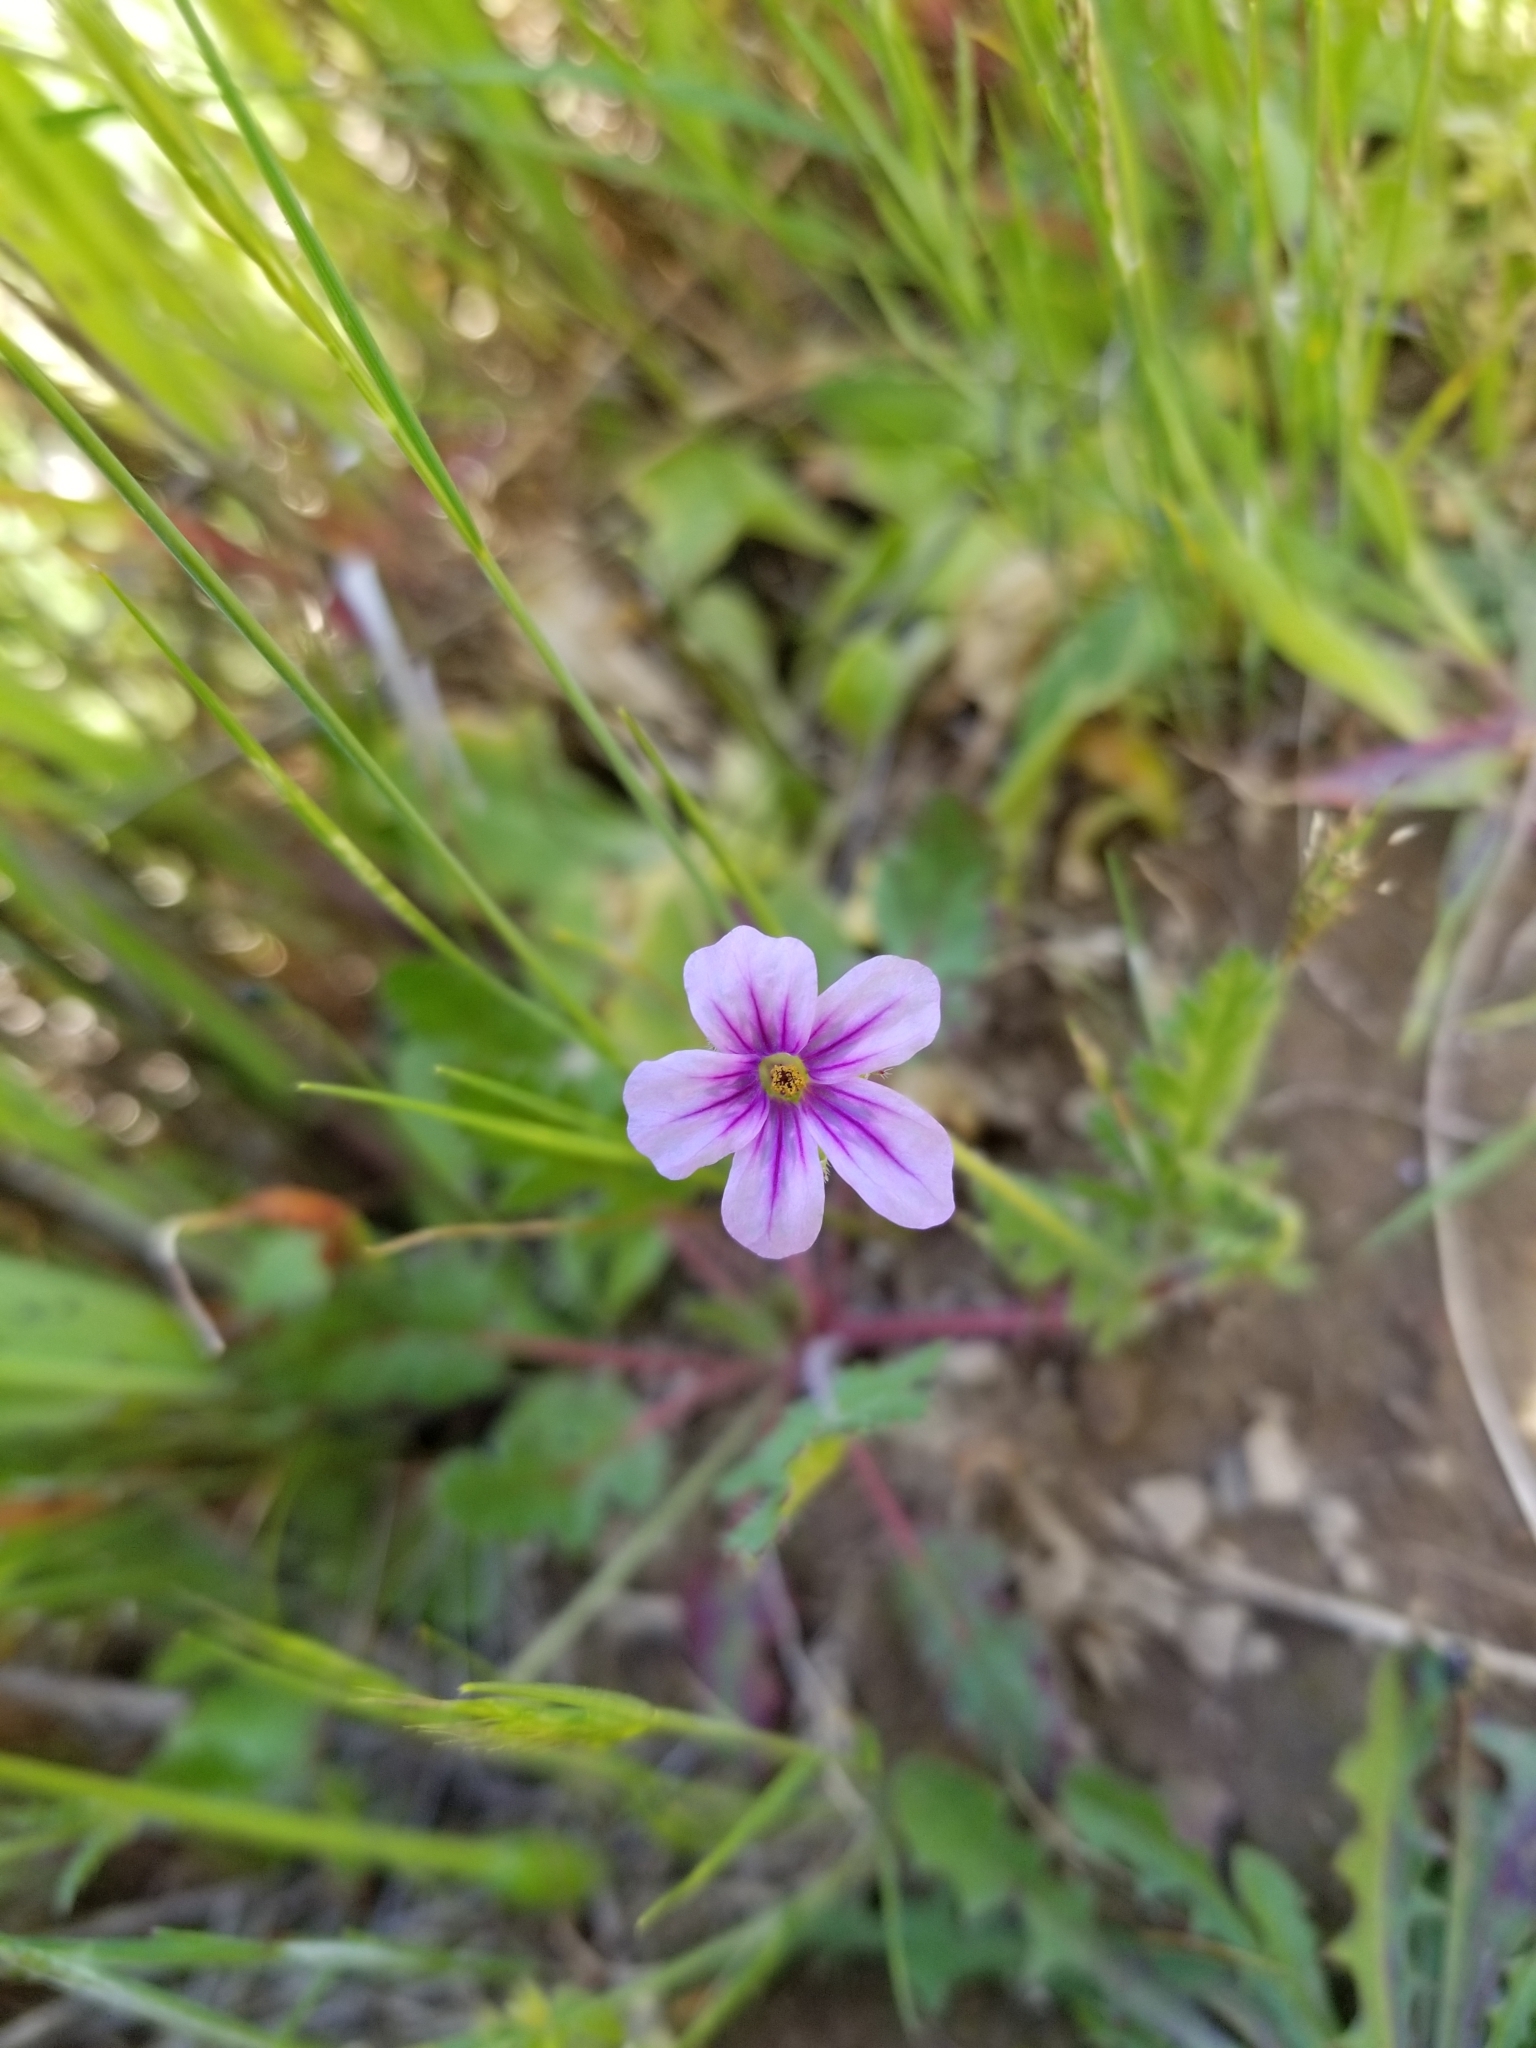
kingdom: Plantae
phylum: Tracheophyta
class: Magnoliopsida
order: Geraniales
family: Geraniaceae
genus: Erodium
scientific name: Erodium botrys
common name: Mediterranean stork's-bill
